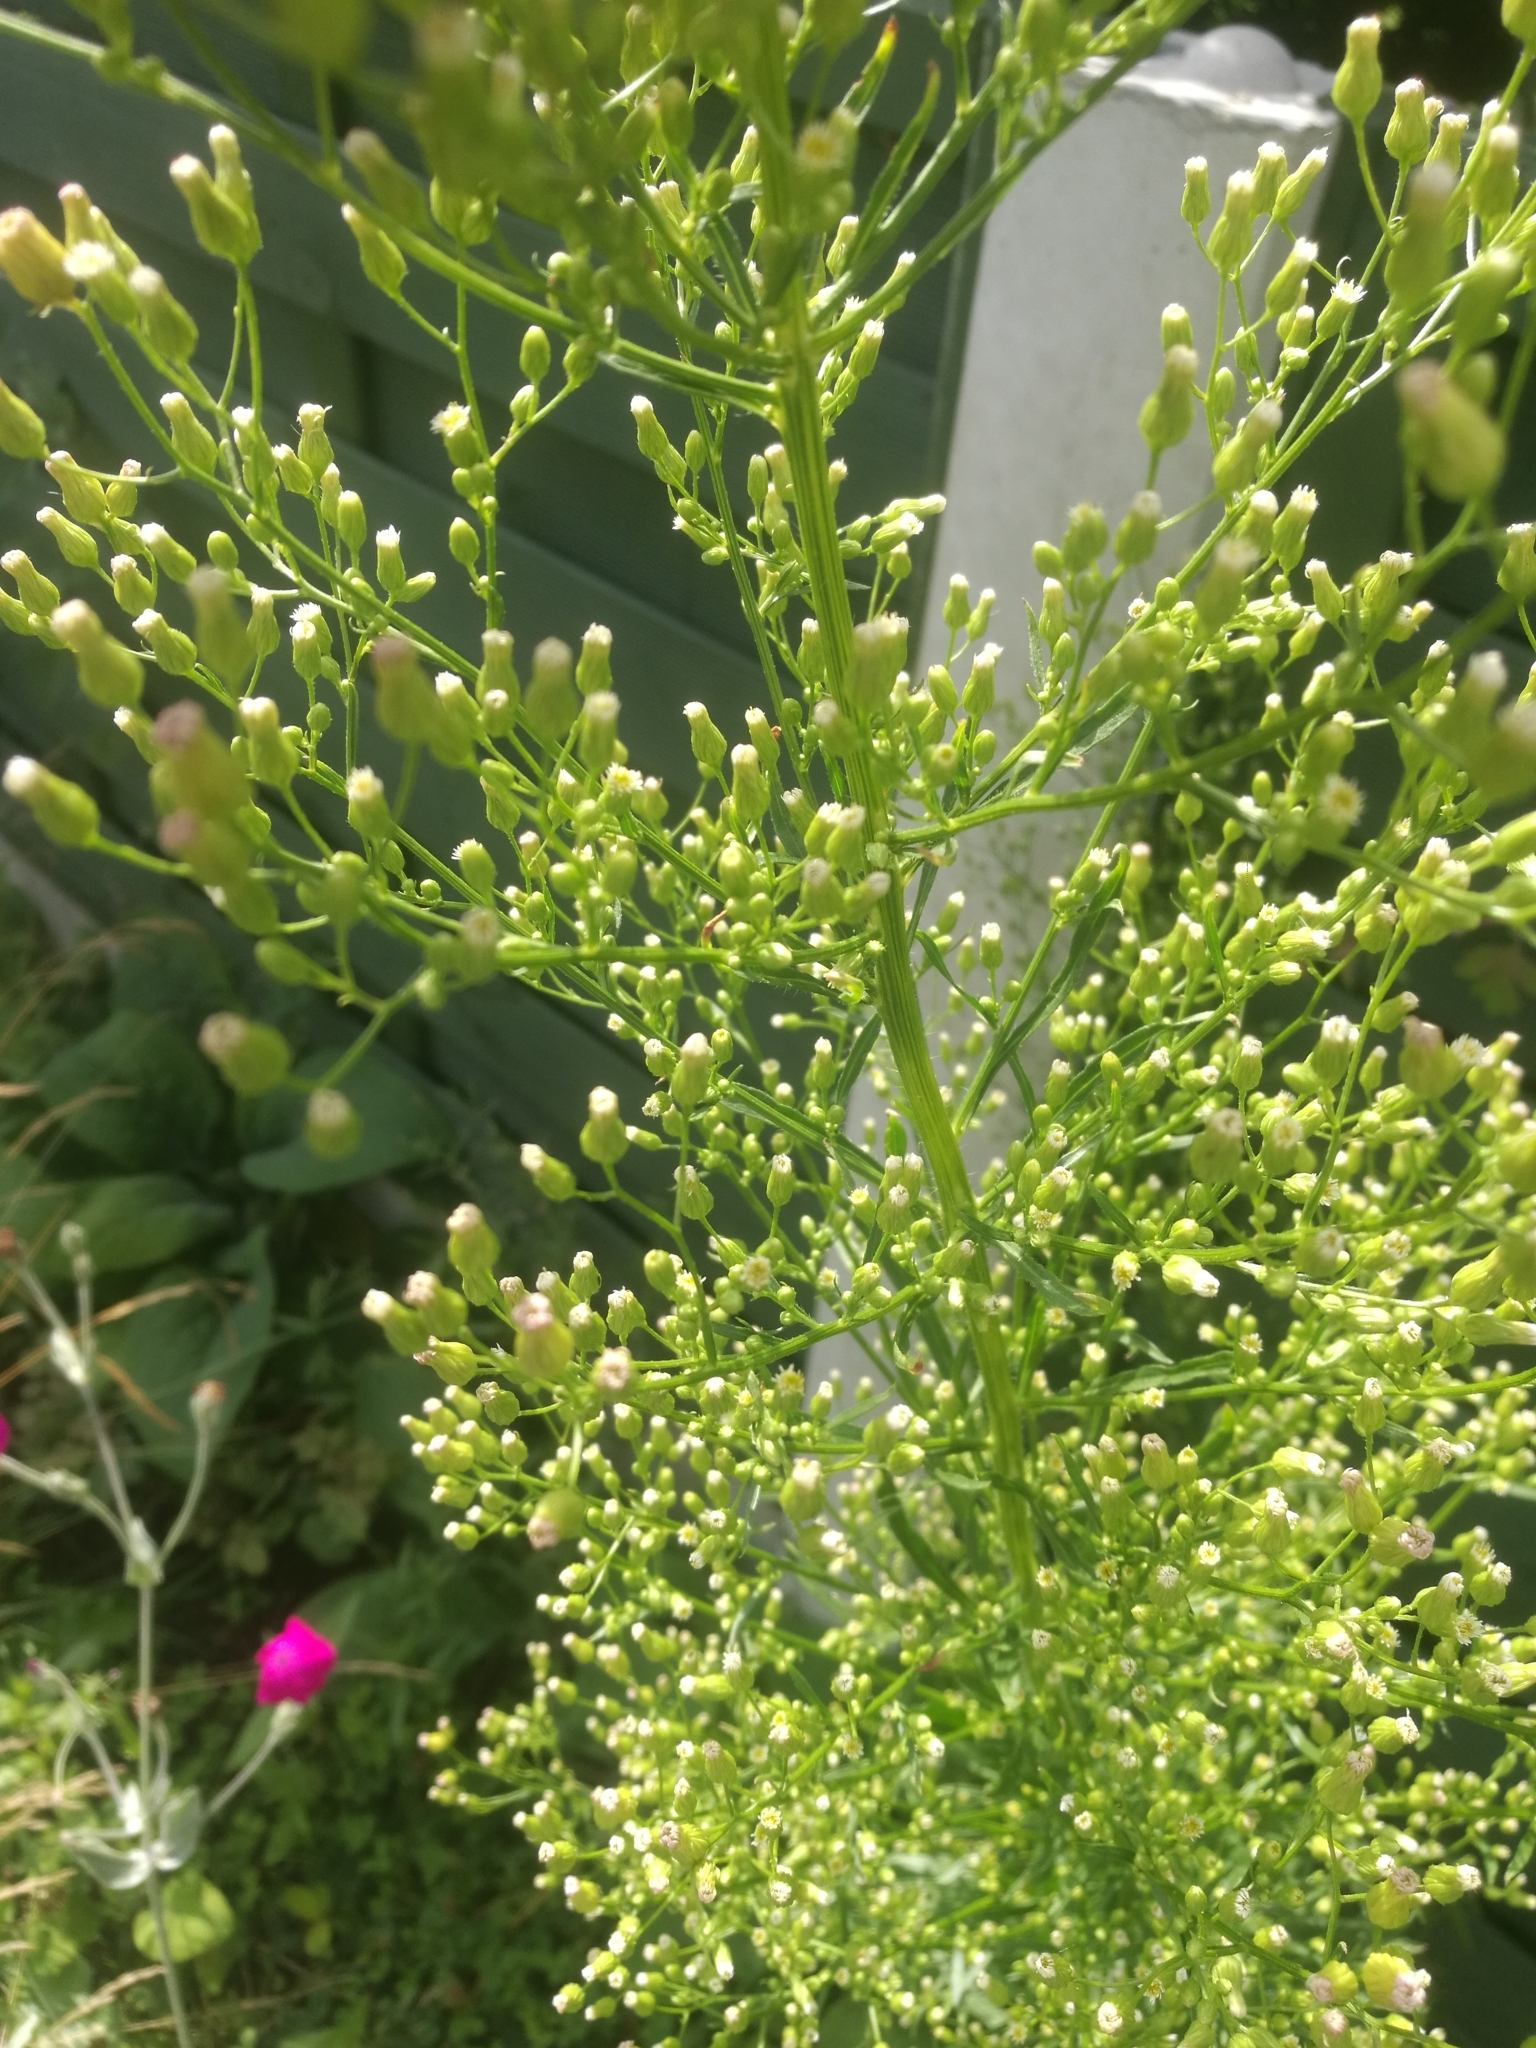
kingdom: Plantae
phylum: Tracheophyta
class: Magnoliopsida
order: Asterales
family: Asteraceae
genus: Erigeron
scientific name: Erigeron canadensis
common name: Canadian fleabane
